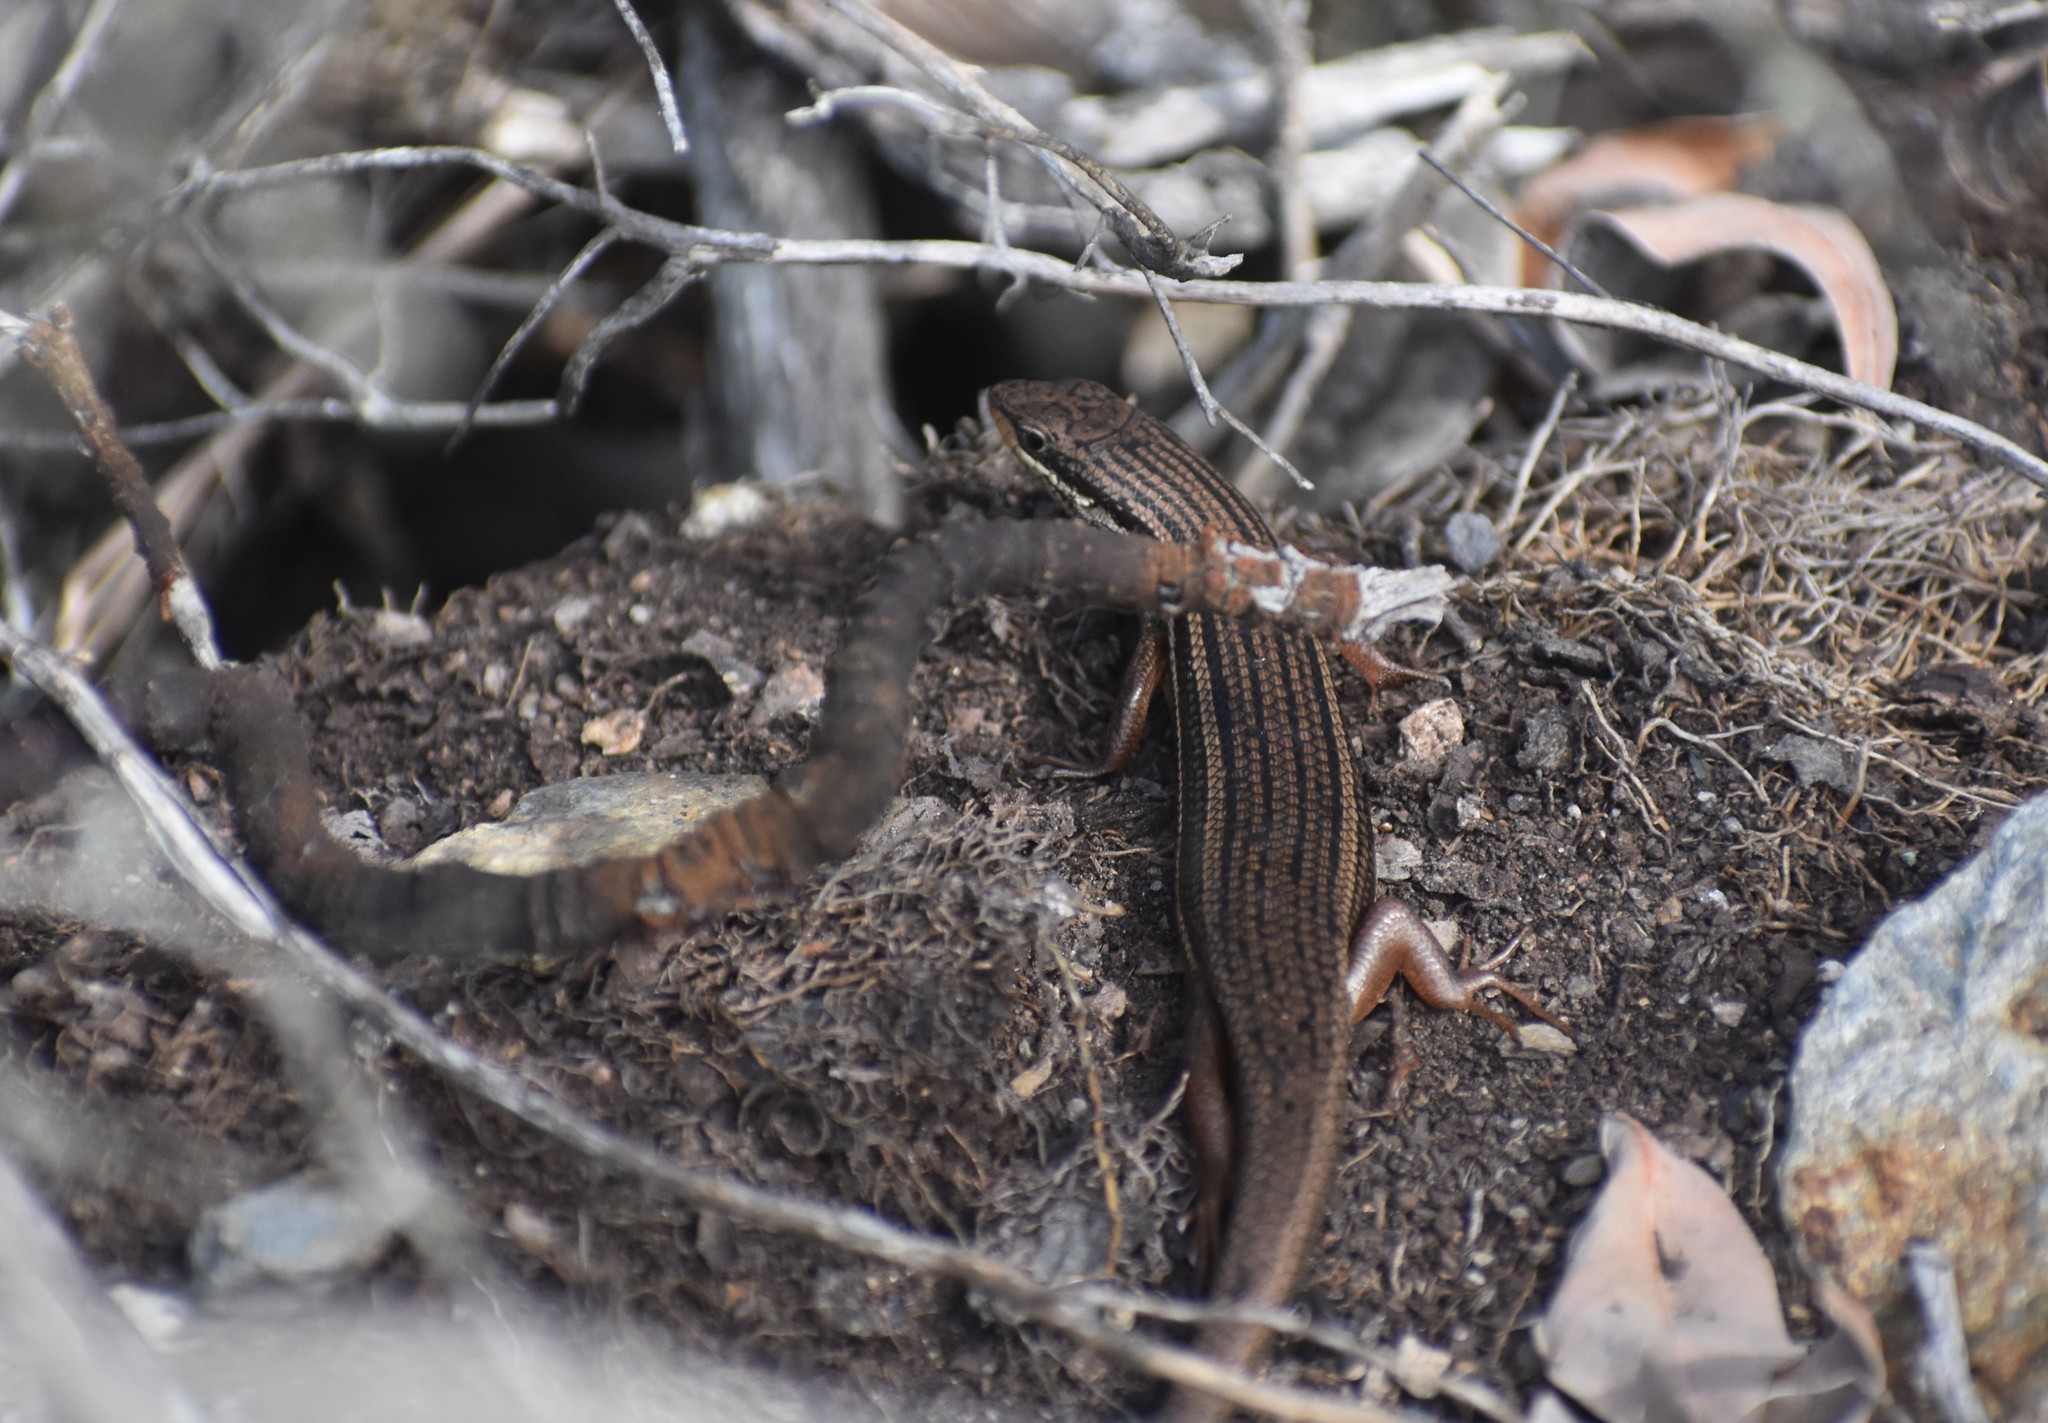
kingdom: Animalia
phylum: Chordata
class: Squamata
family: Scincidae
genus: Trachylepis
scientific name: Trachylepis homalocephala
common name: Red-sided skink
